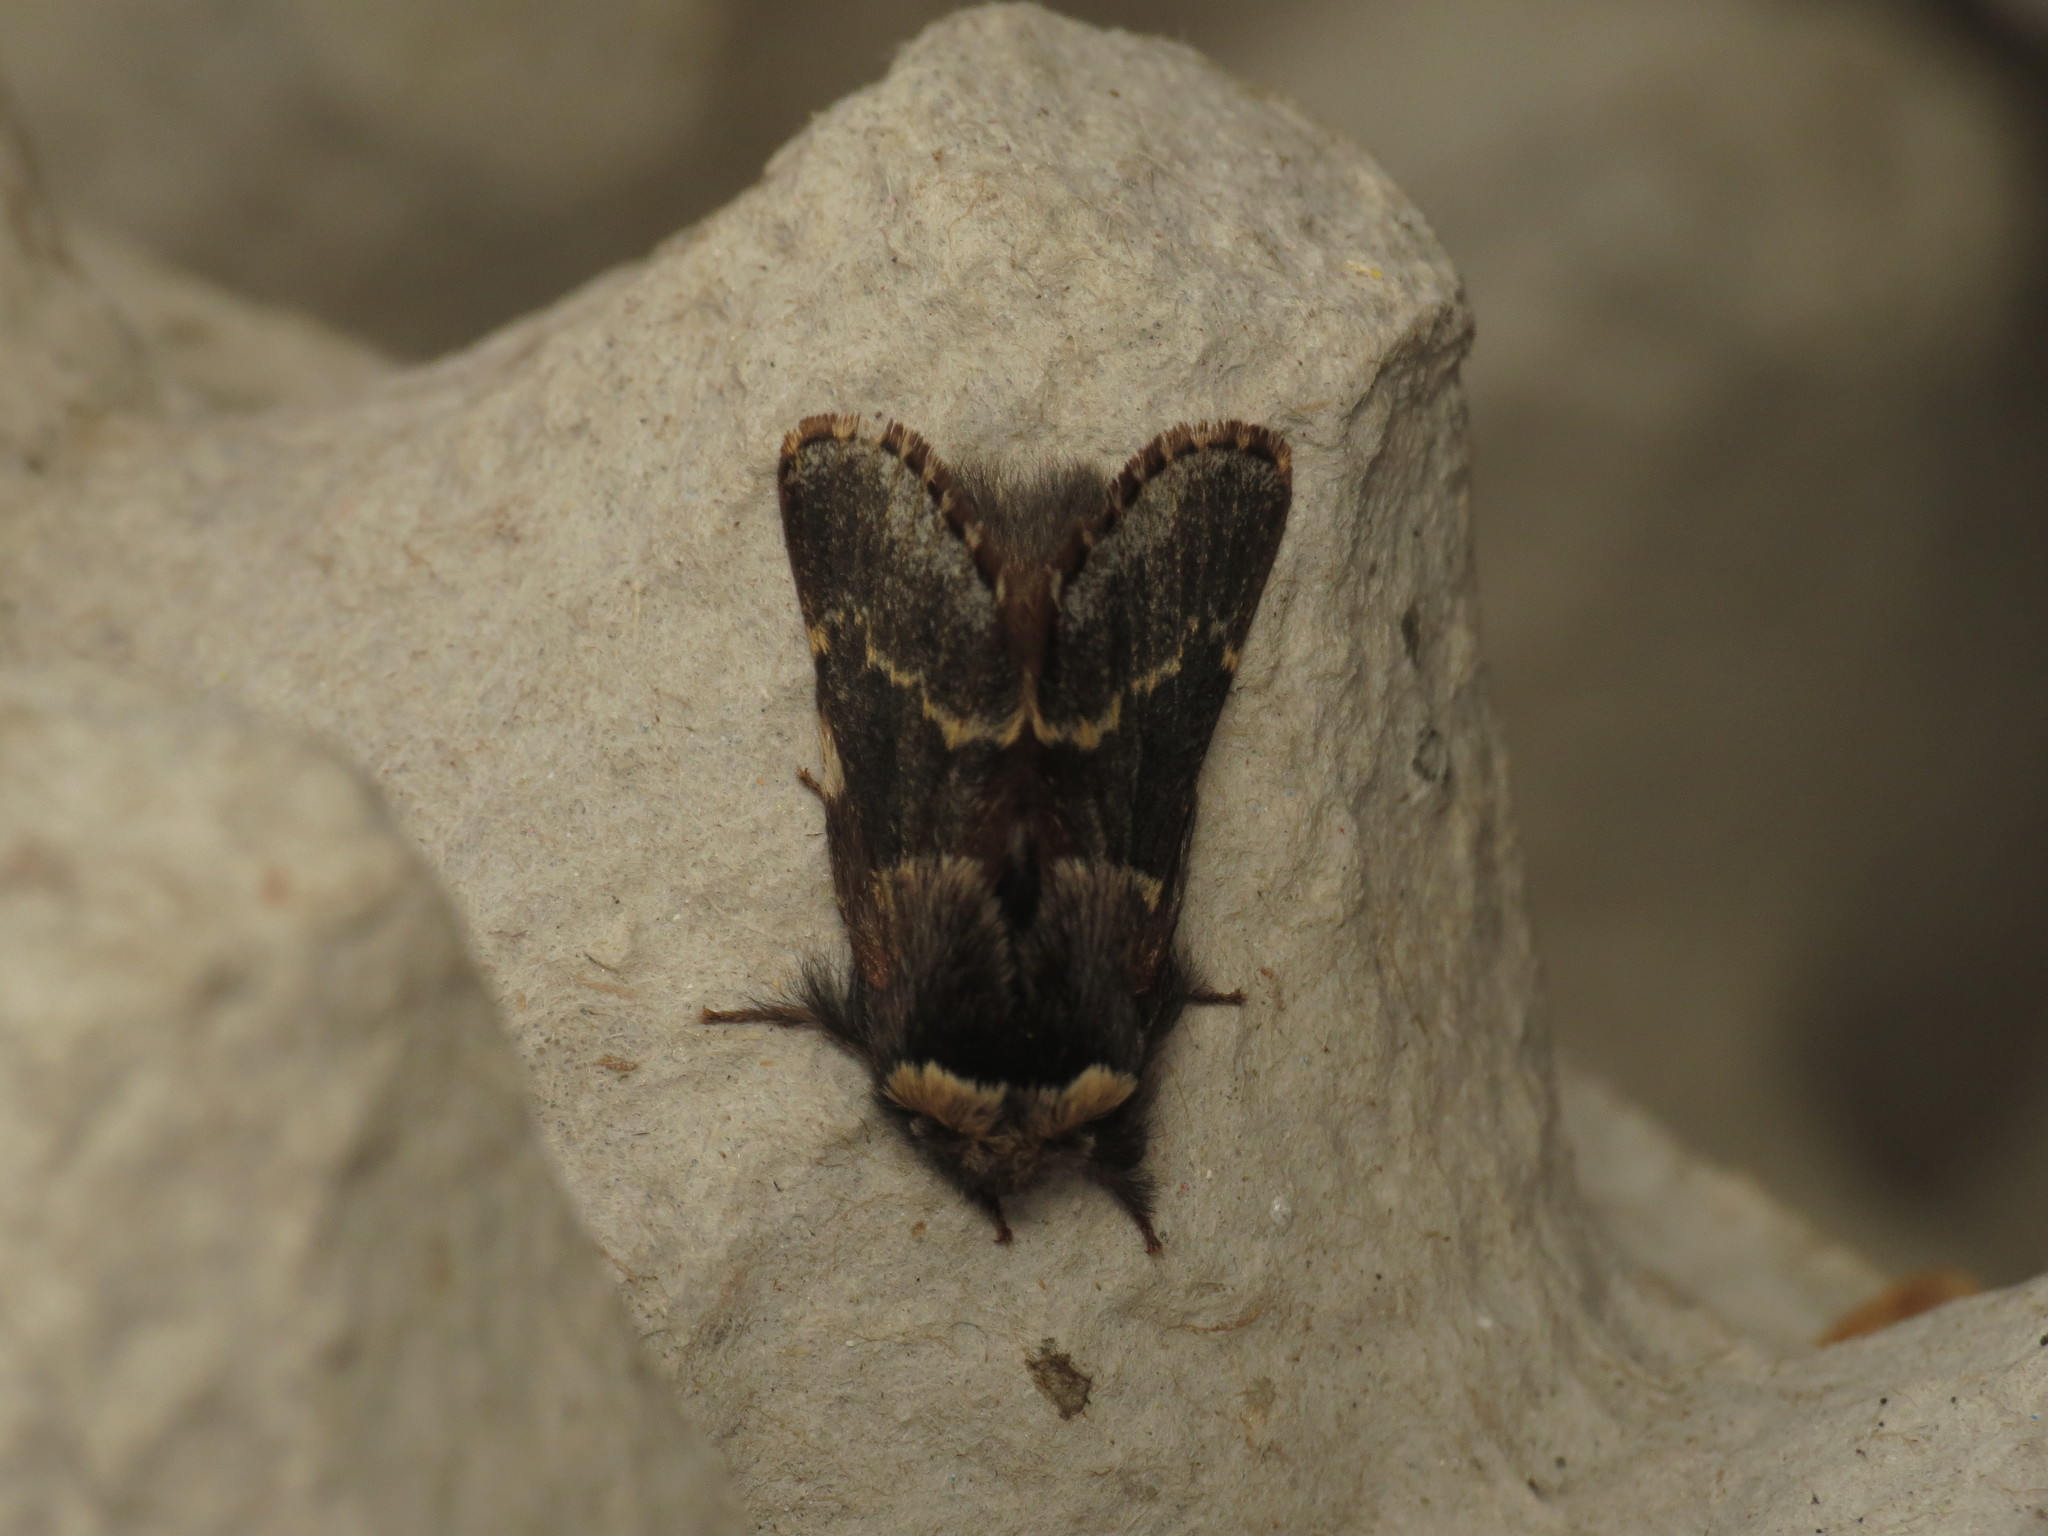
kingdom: Animalia
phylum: Arthropoda
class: Insecta
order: Lepidoptera
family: Lasiocampidae
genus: Poecilocampa
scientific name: Poecilocampa populi
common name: December moth
